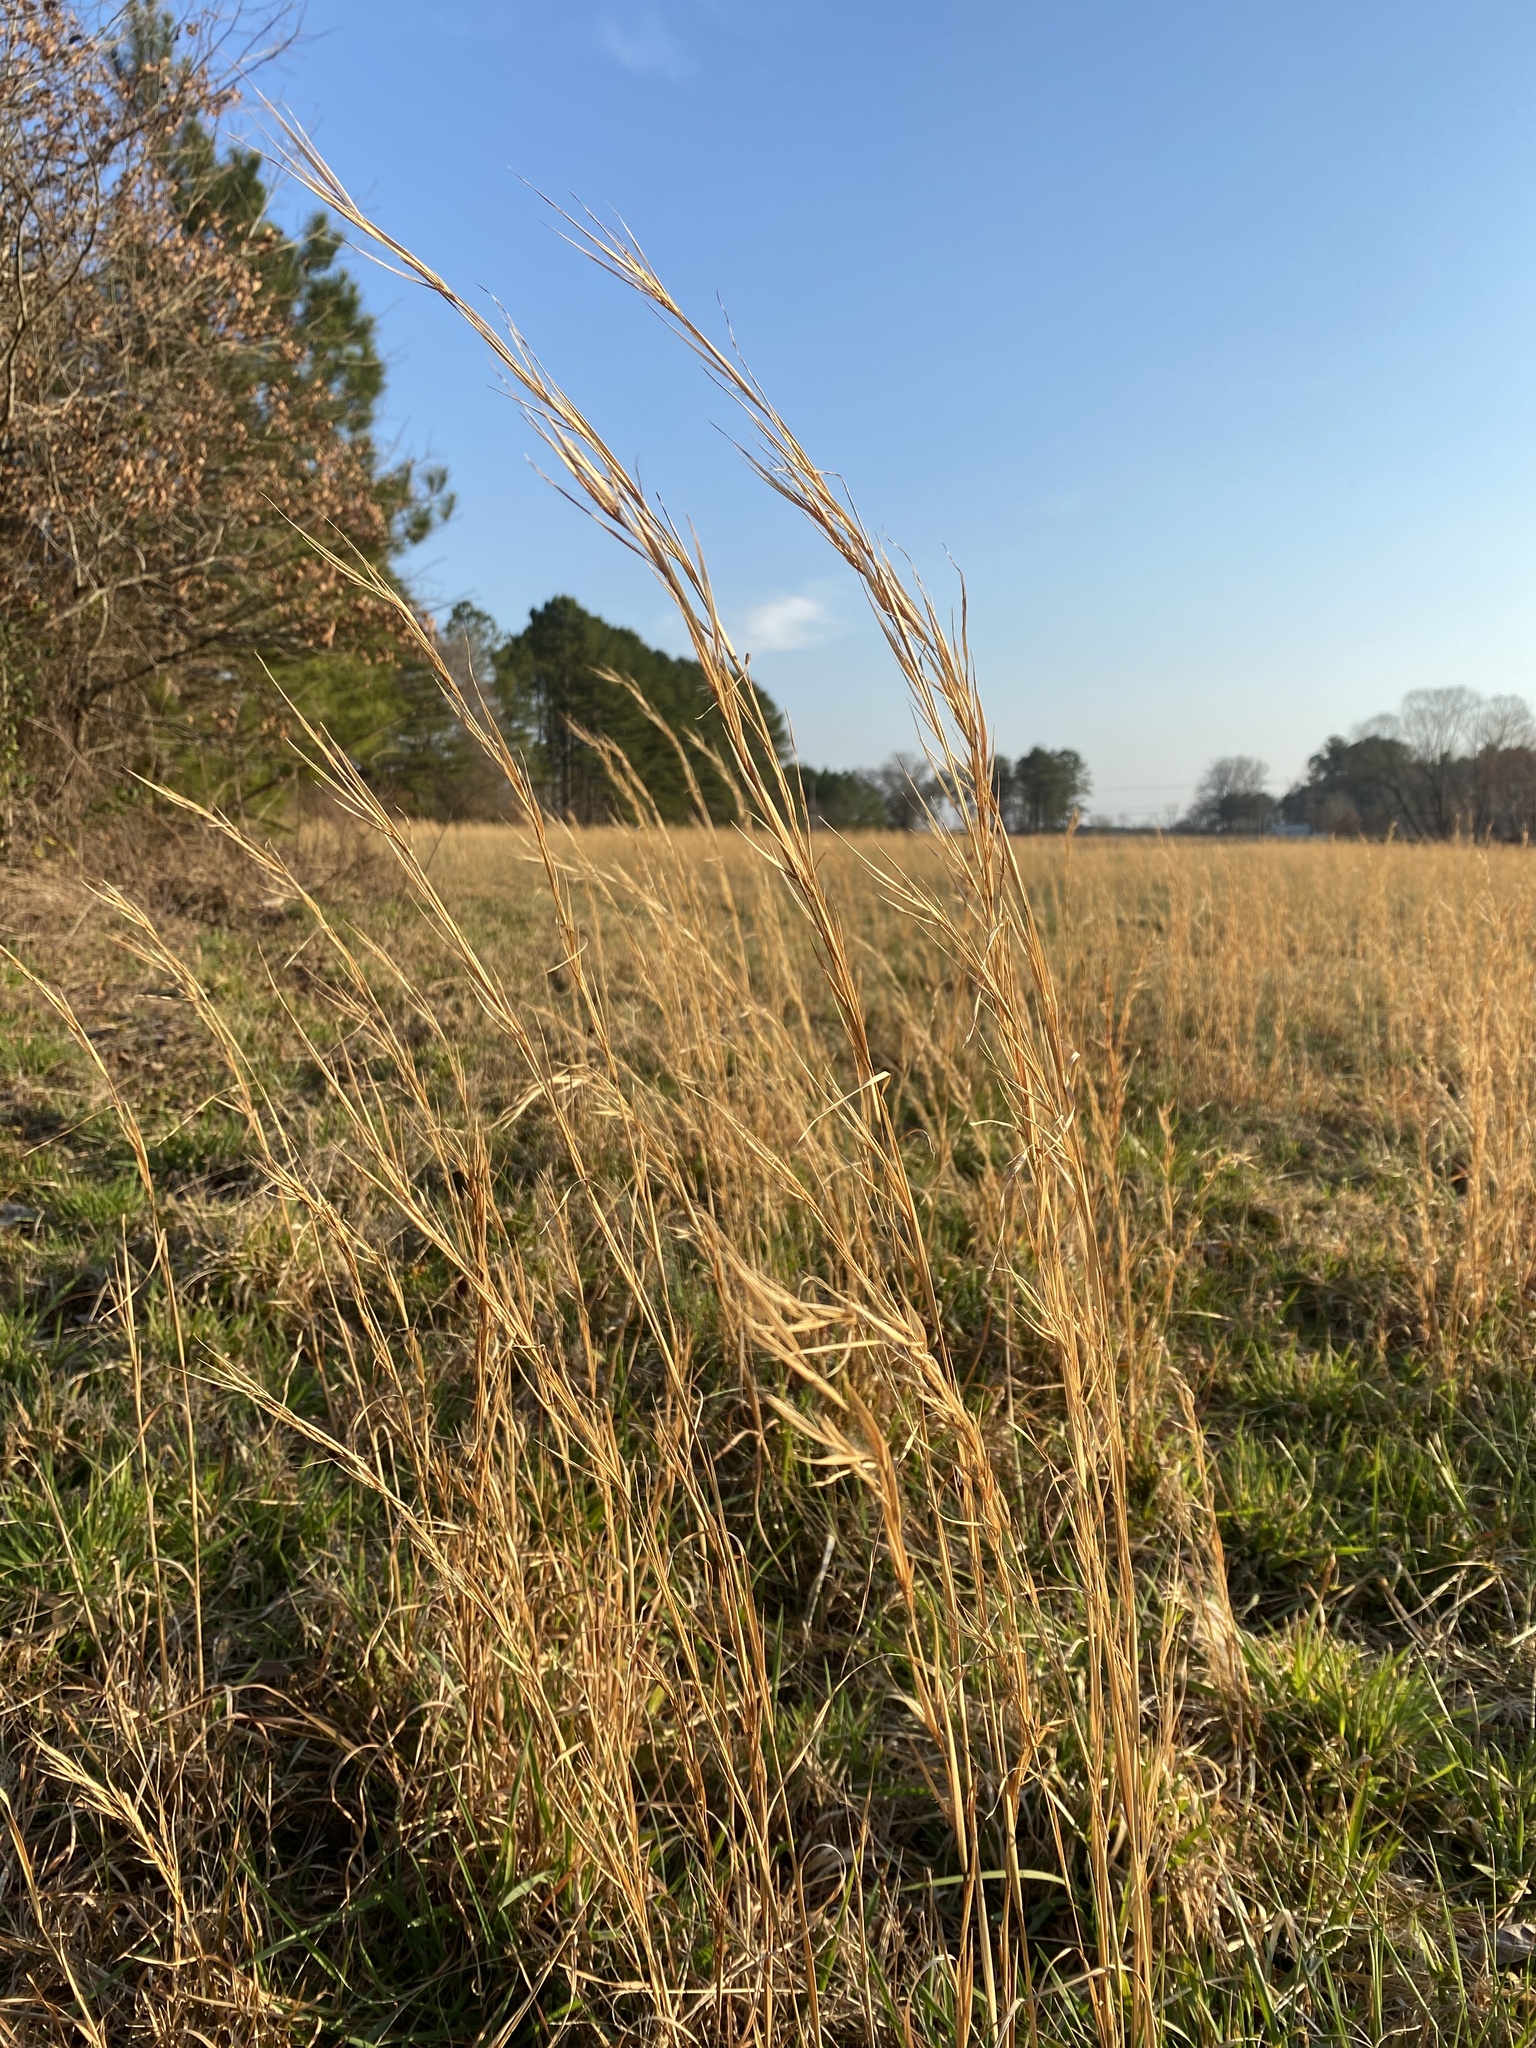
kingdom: Plantae
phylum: Tracheophyta
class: Liliopsida
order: Poales
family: Poaceae
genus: Andropogon
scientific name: Andropogon virginicus
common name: Broomsedge bluestem
